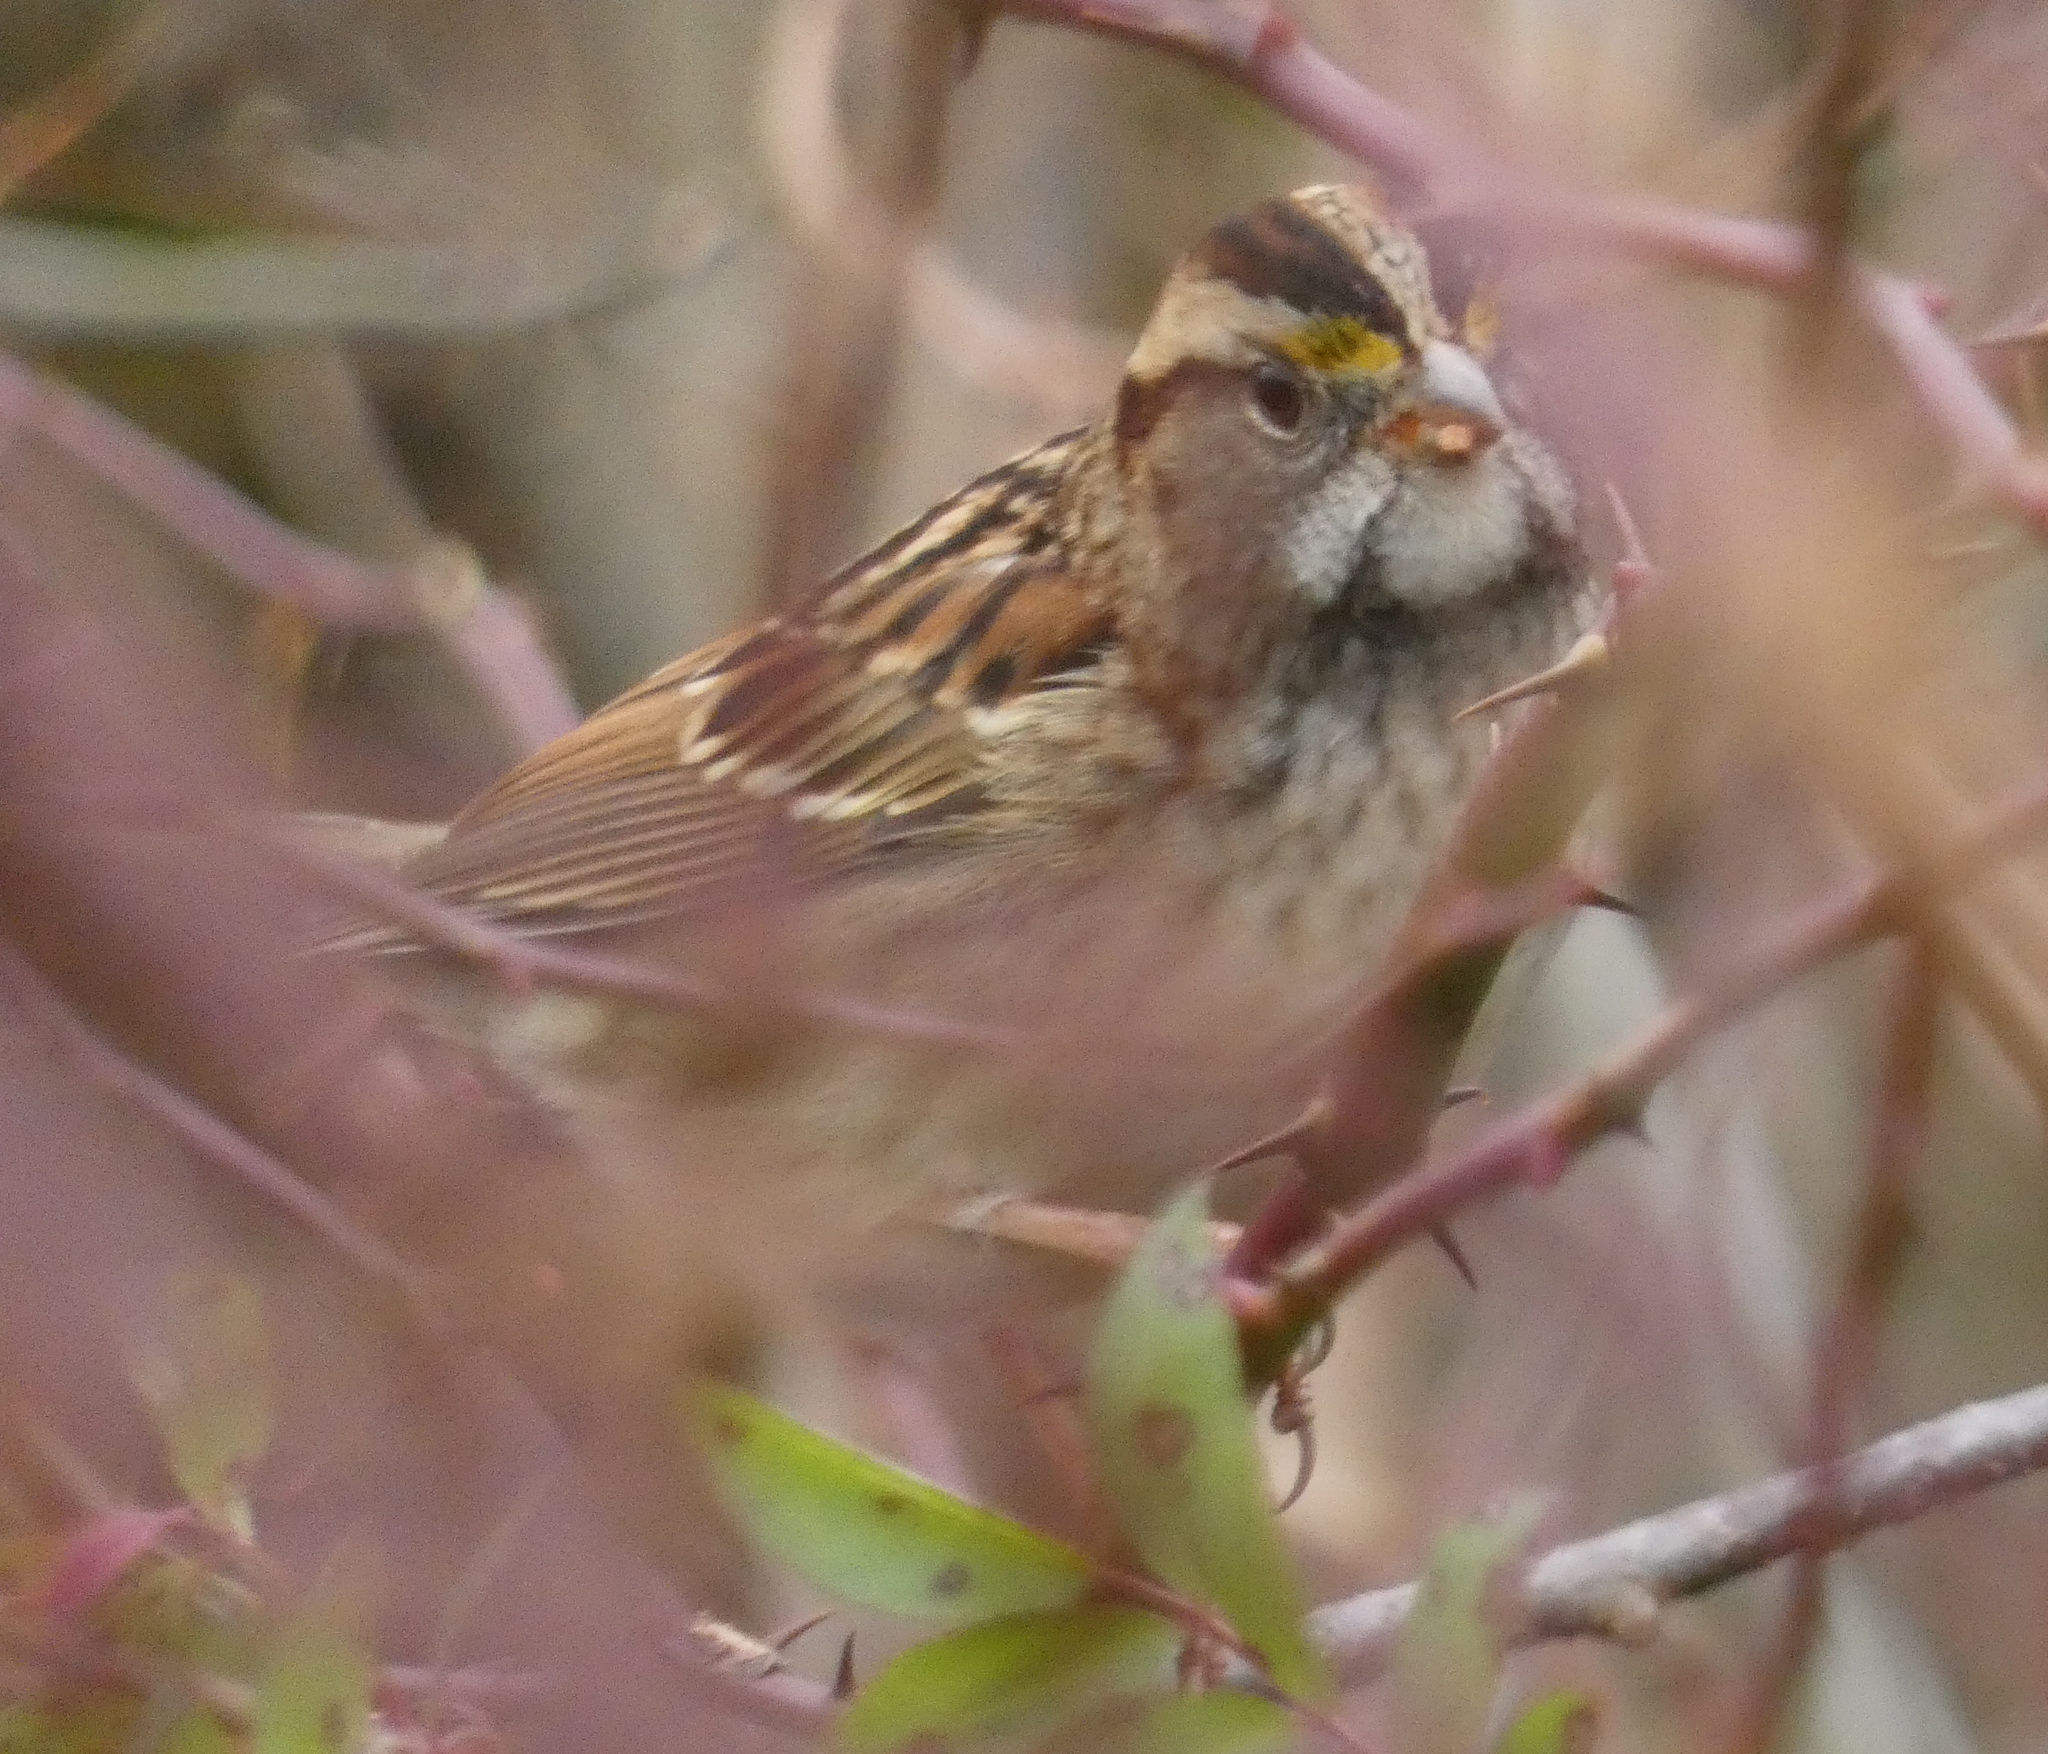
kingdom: Animalia
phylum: Chordata
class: Aves
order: Passeriformes
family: Passerellidae
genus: Zonotrichia
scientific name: Zonotrichia albicollis
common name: White-throated sparrow
